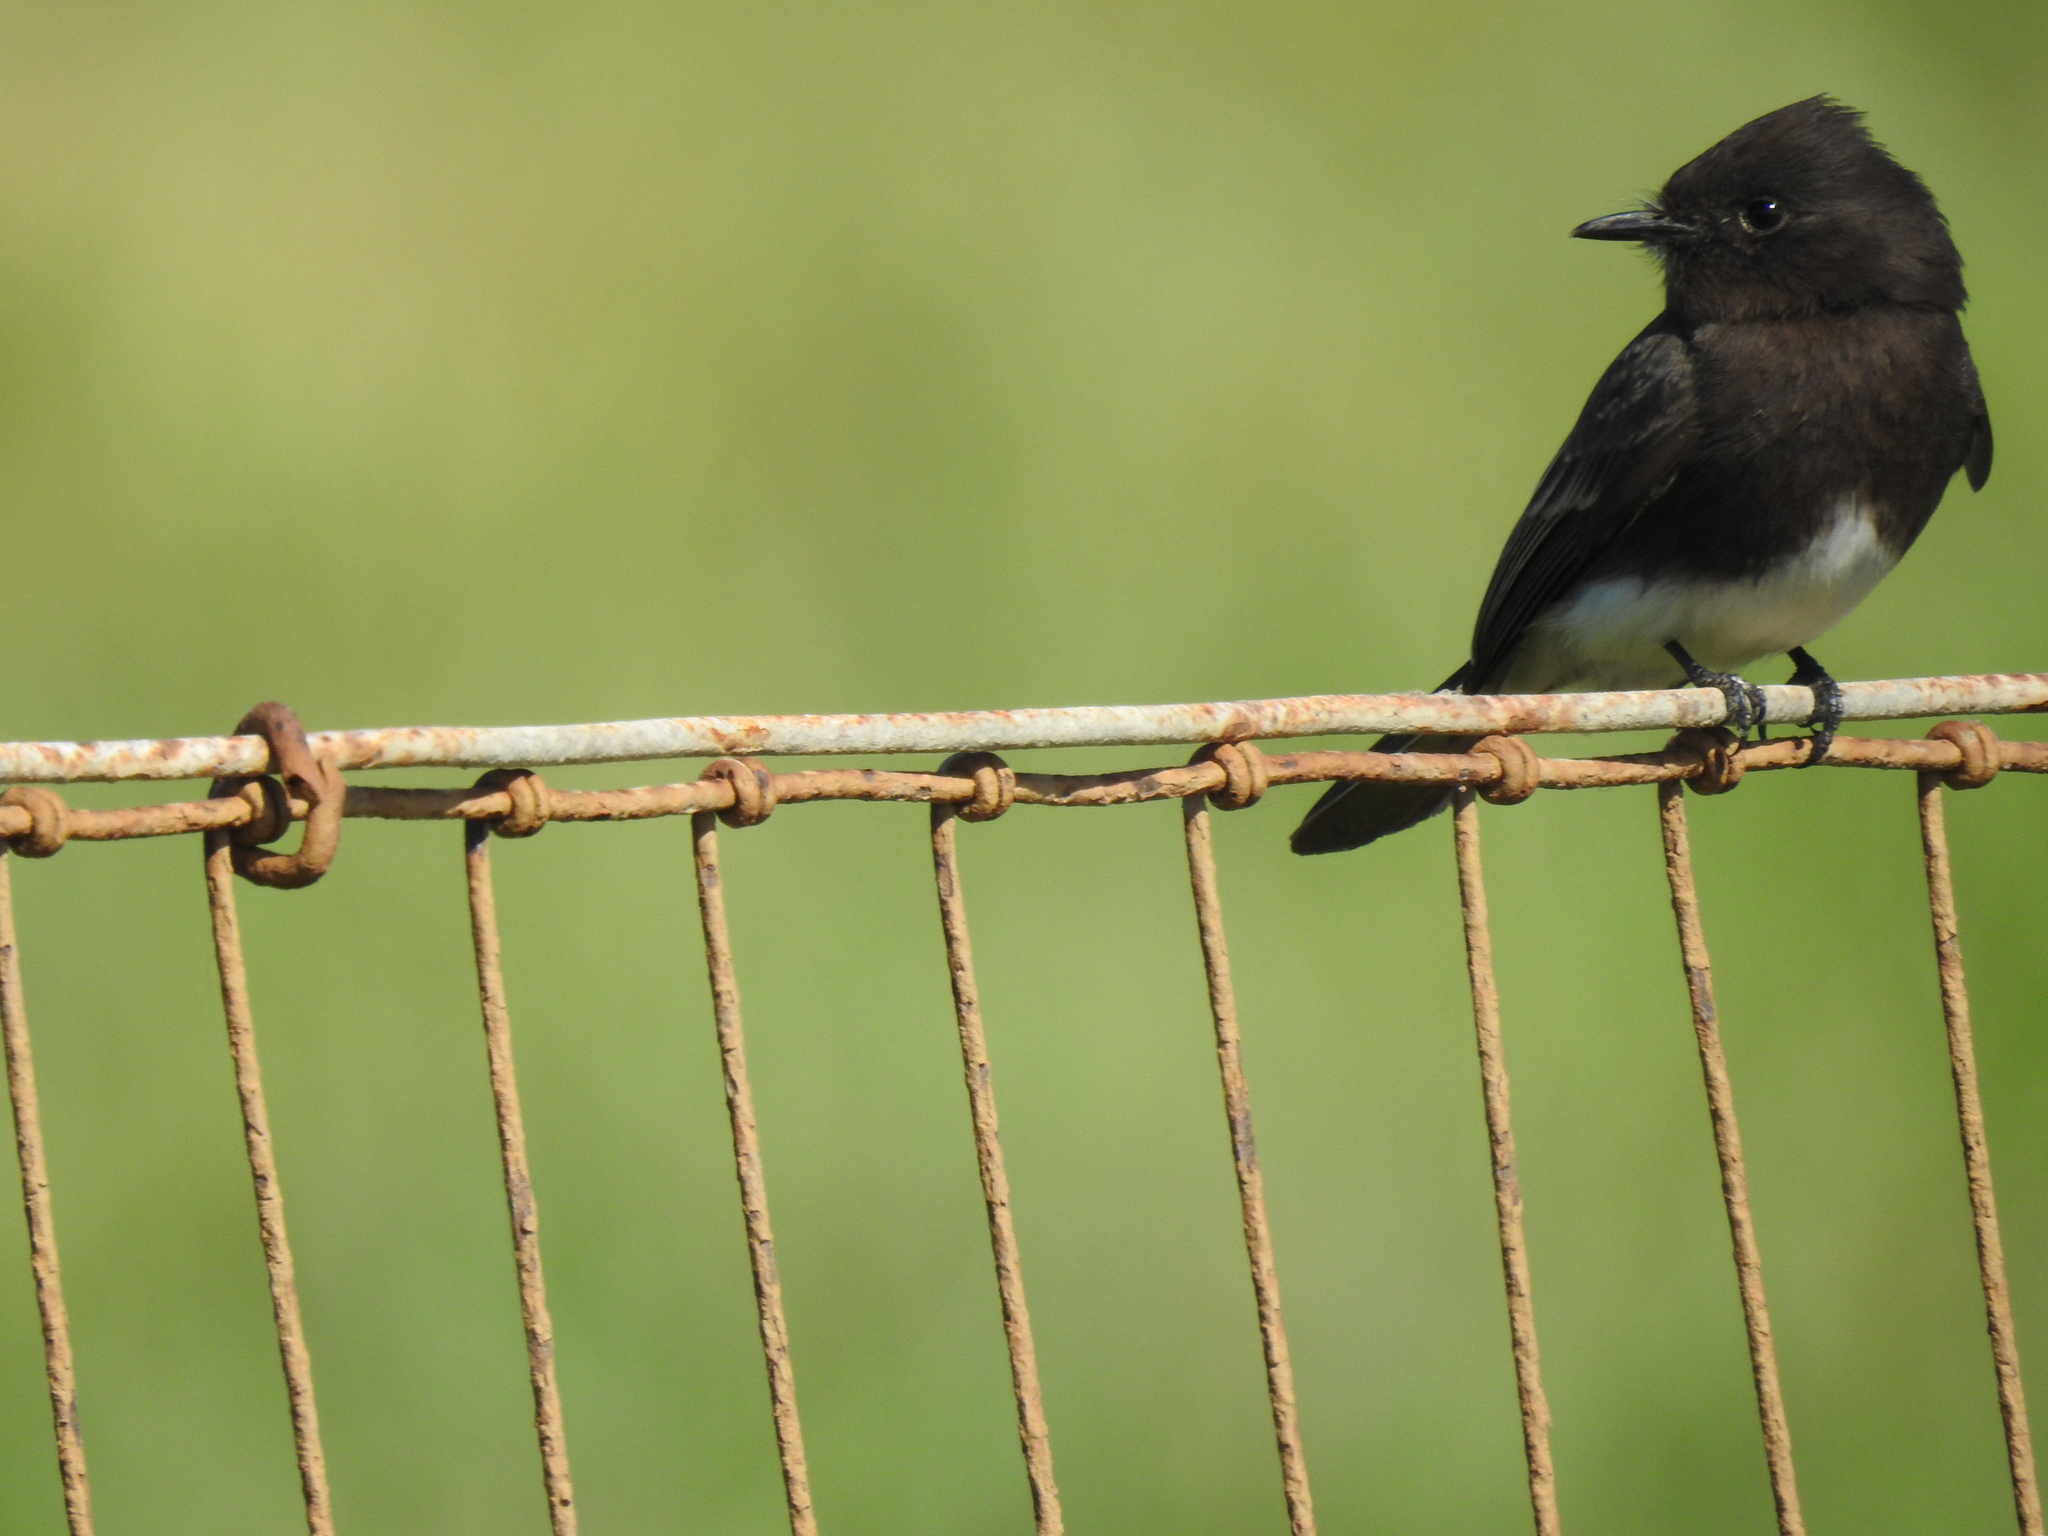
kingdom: Animalia
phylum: Chordata
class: Aves
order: Passeriformes
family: Tyrannidae
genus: Sayornis
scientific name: Sayornis nigricans
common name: Black phoebe
